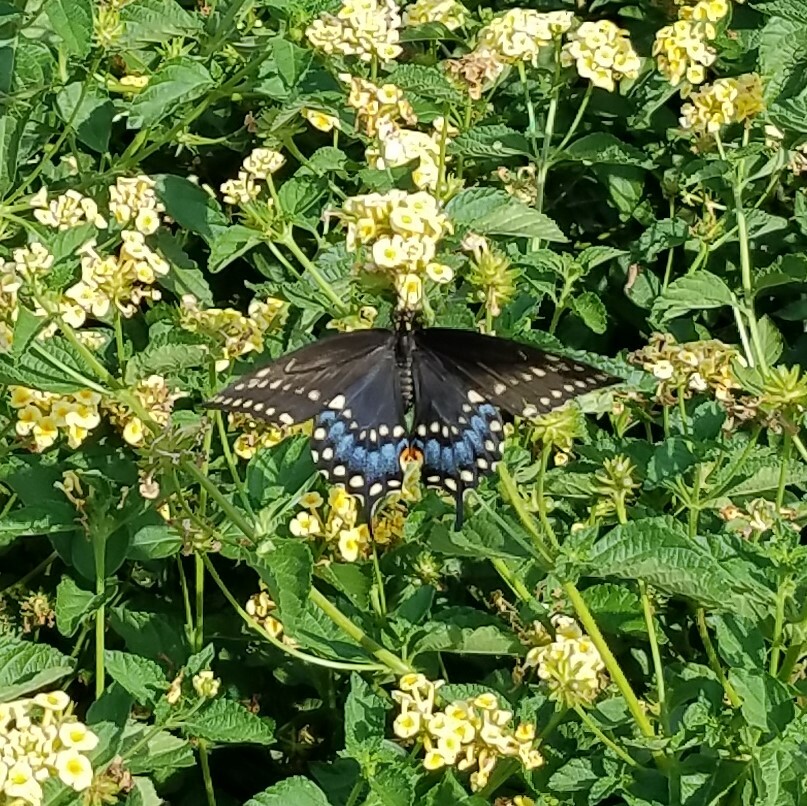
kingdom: Animalia
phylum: Arthropoda
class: Insecta
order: Lepidoptera
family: Papilionidae
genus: Papilio
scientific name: Papilio polyxenes
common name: Black swallowtail
